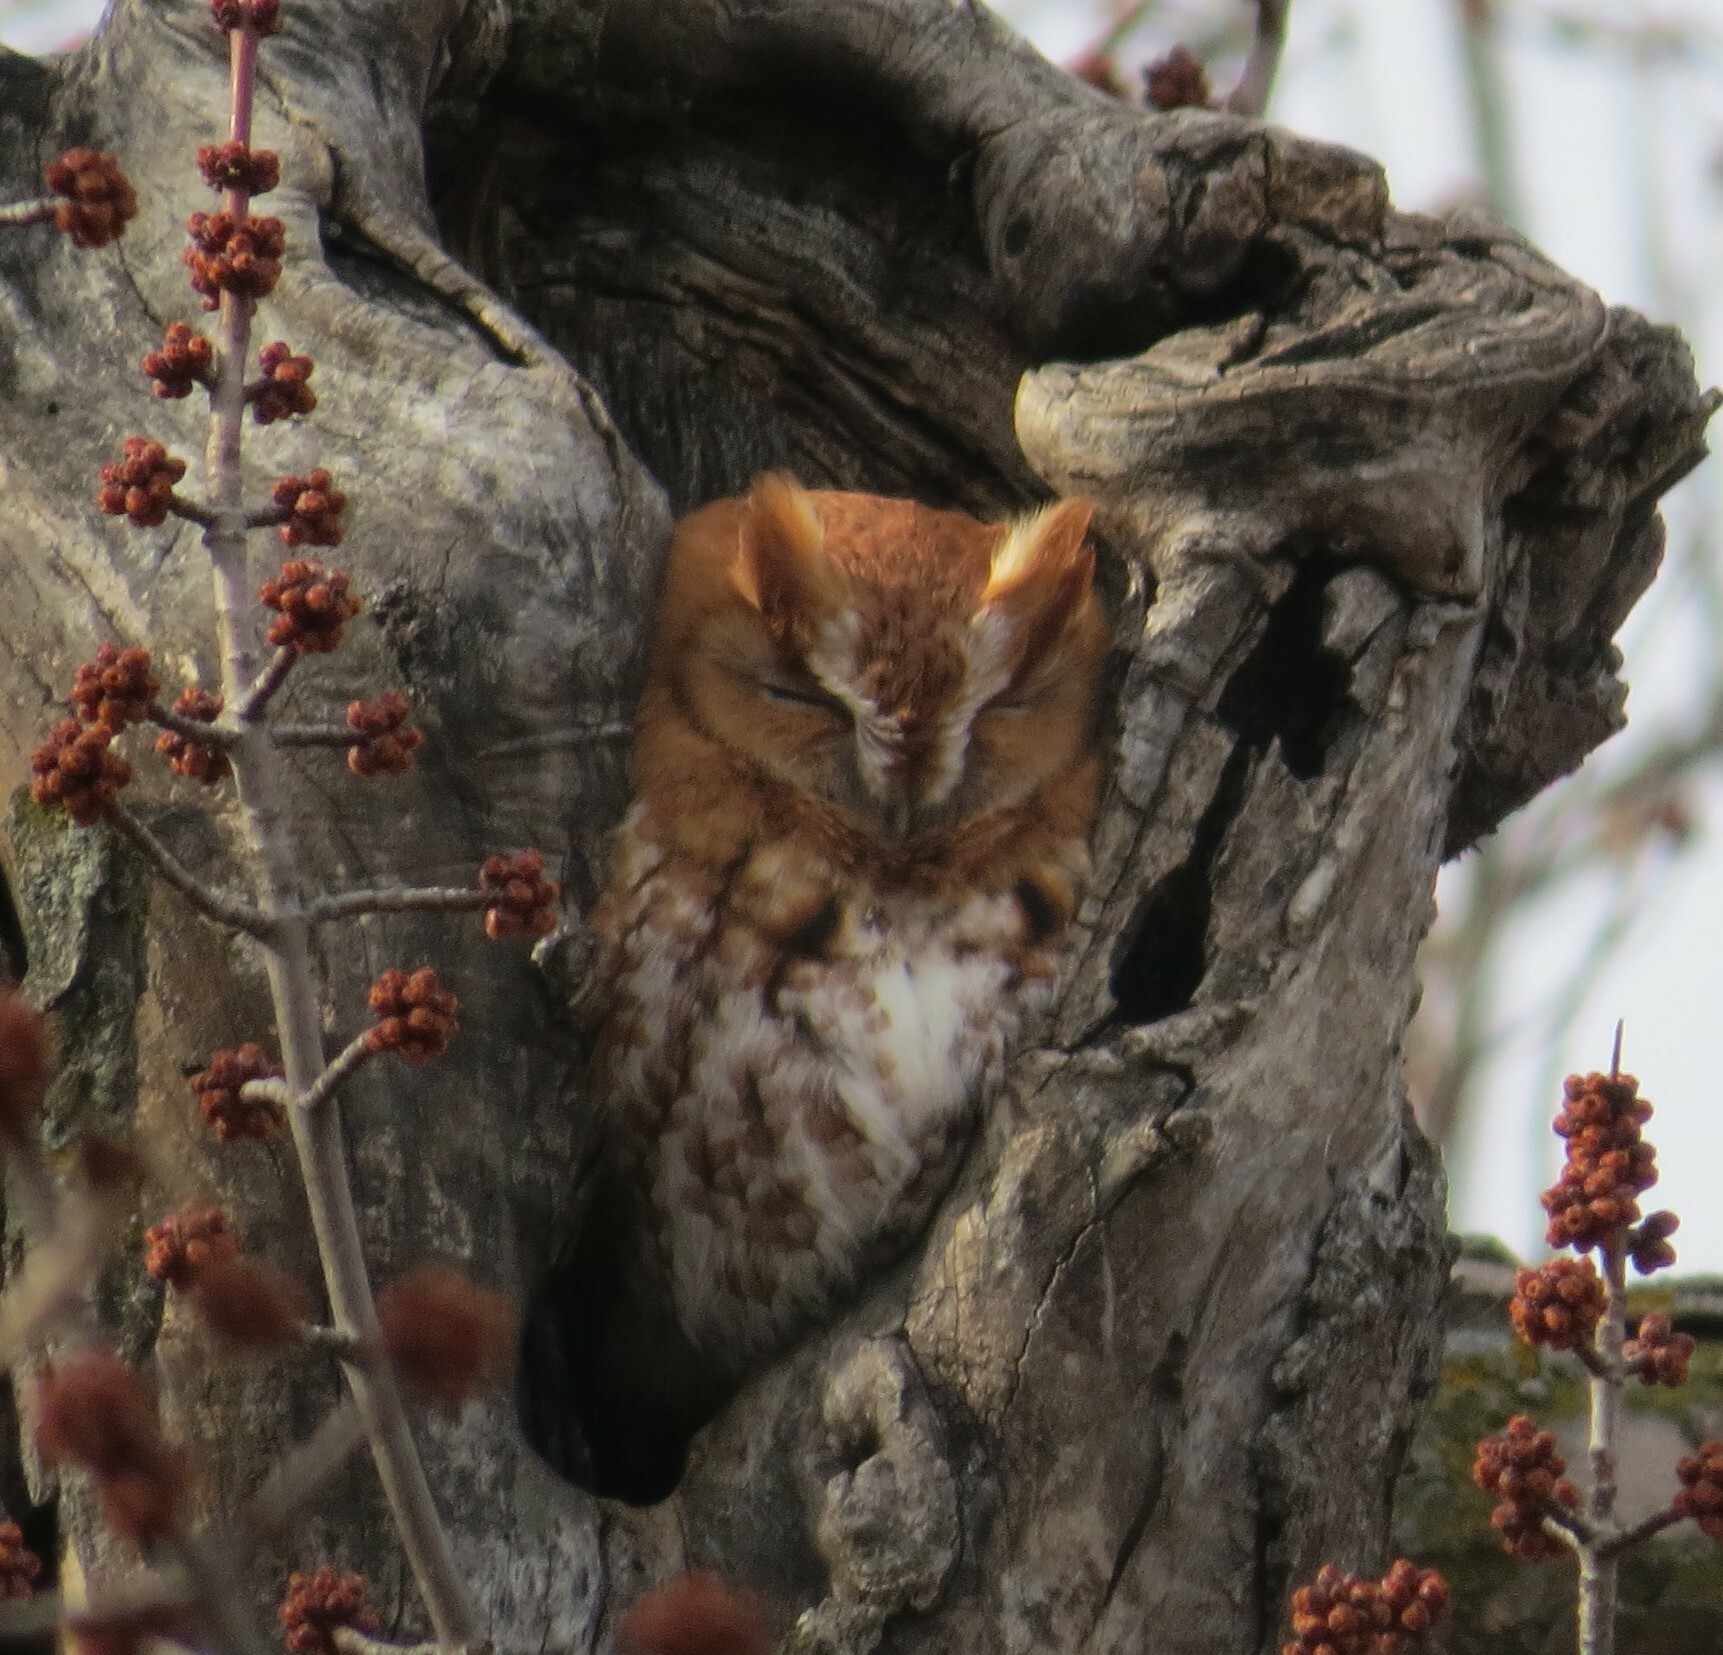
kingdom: Animalia
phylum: Chordata
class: Aves
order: Strigiformes
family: Strigidae
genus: Megascops
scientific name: Megascops asio
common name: Eastern screech-owl
